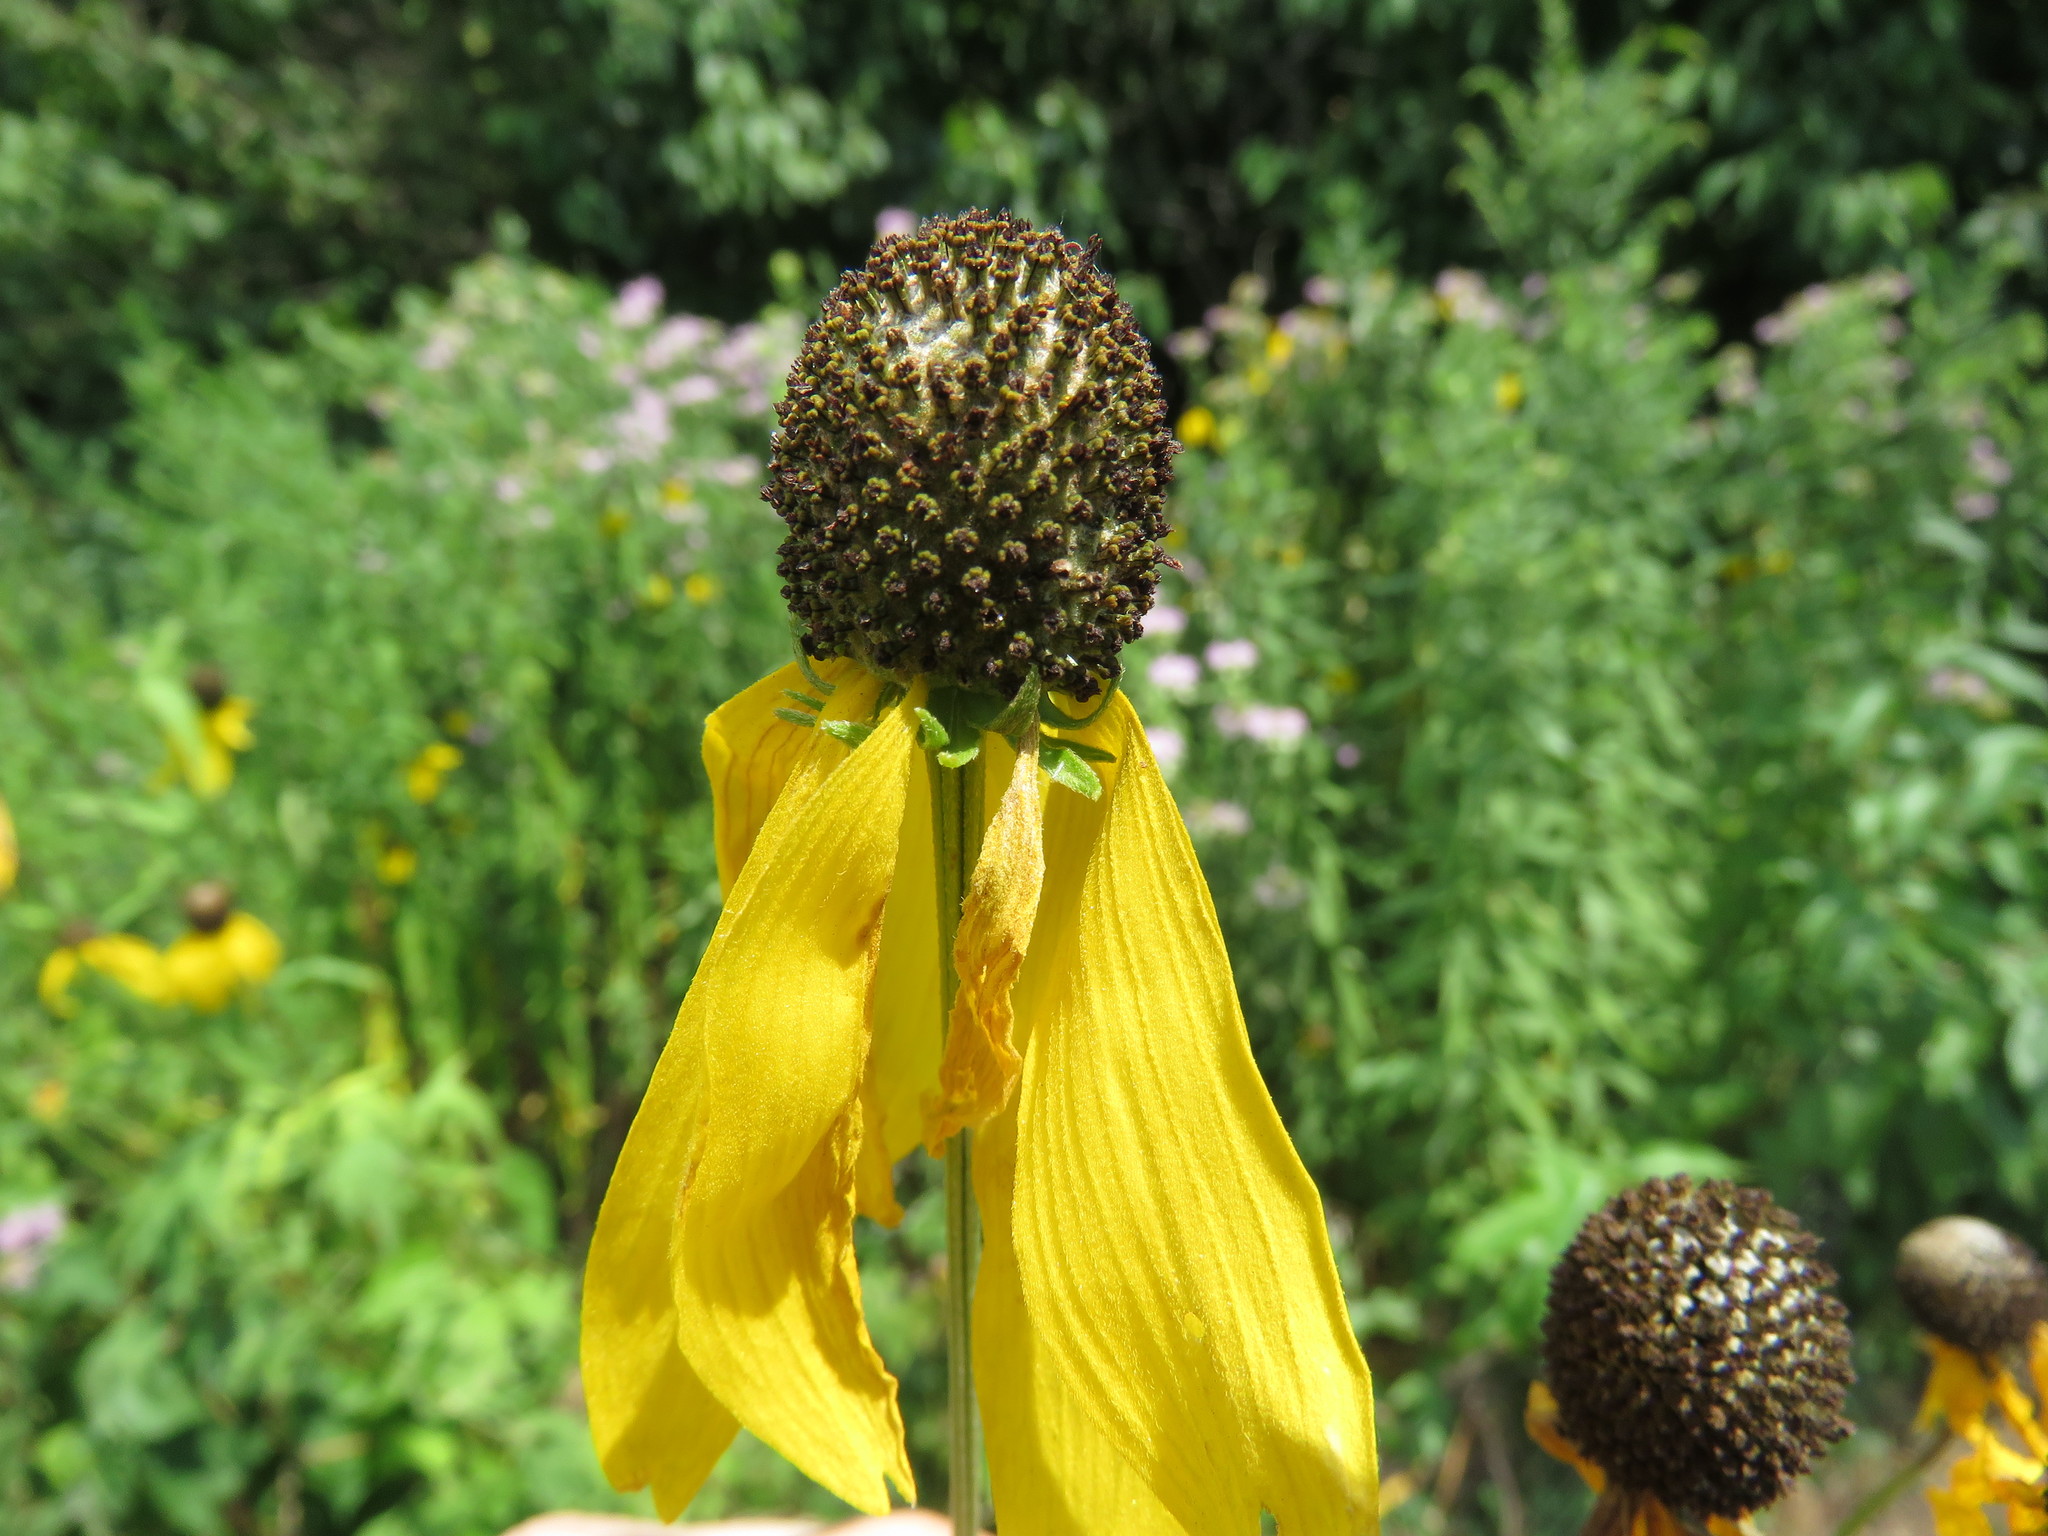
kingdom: Plantae
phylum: Tracheophyta
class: Magnoliopsida
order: Asterales
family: Asteraceae
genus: Ratibida
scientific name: Ratibida pinnata
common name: Drooping prairie-coneflower
